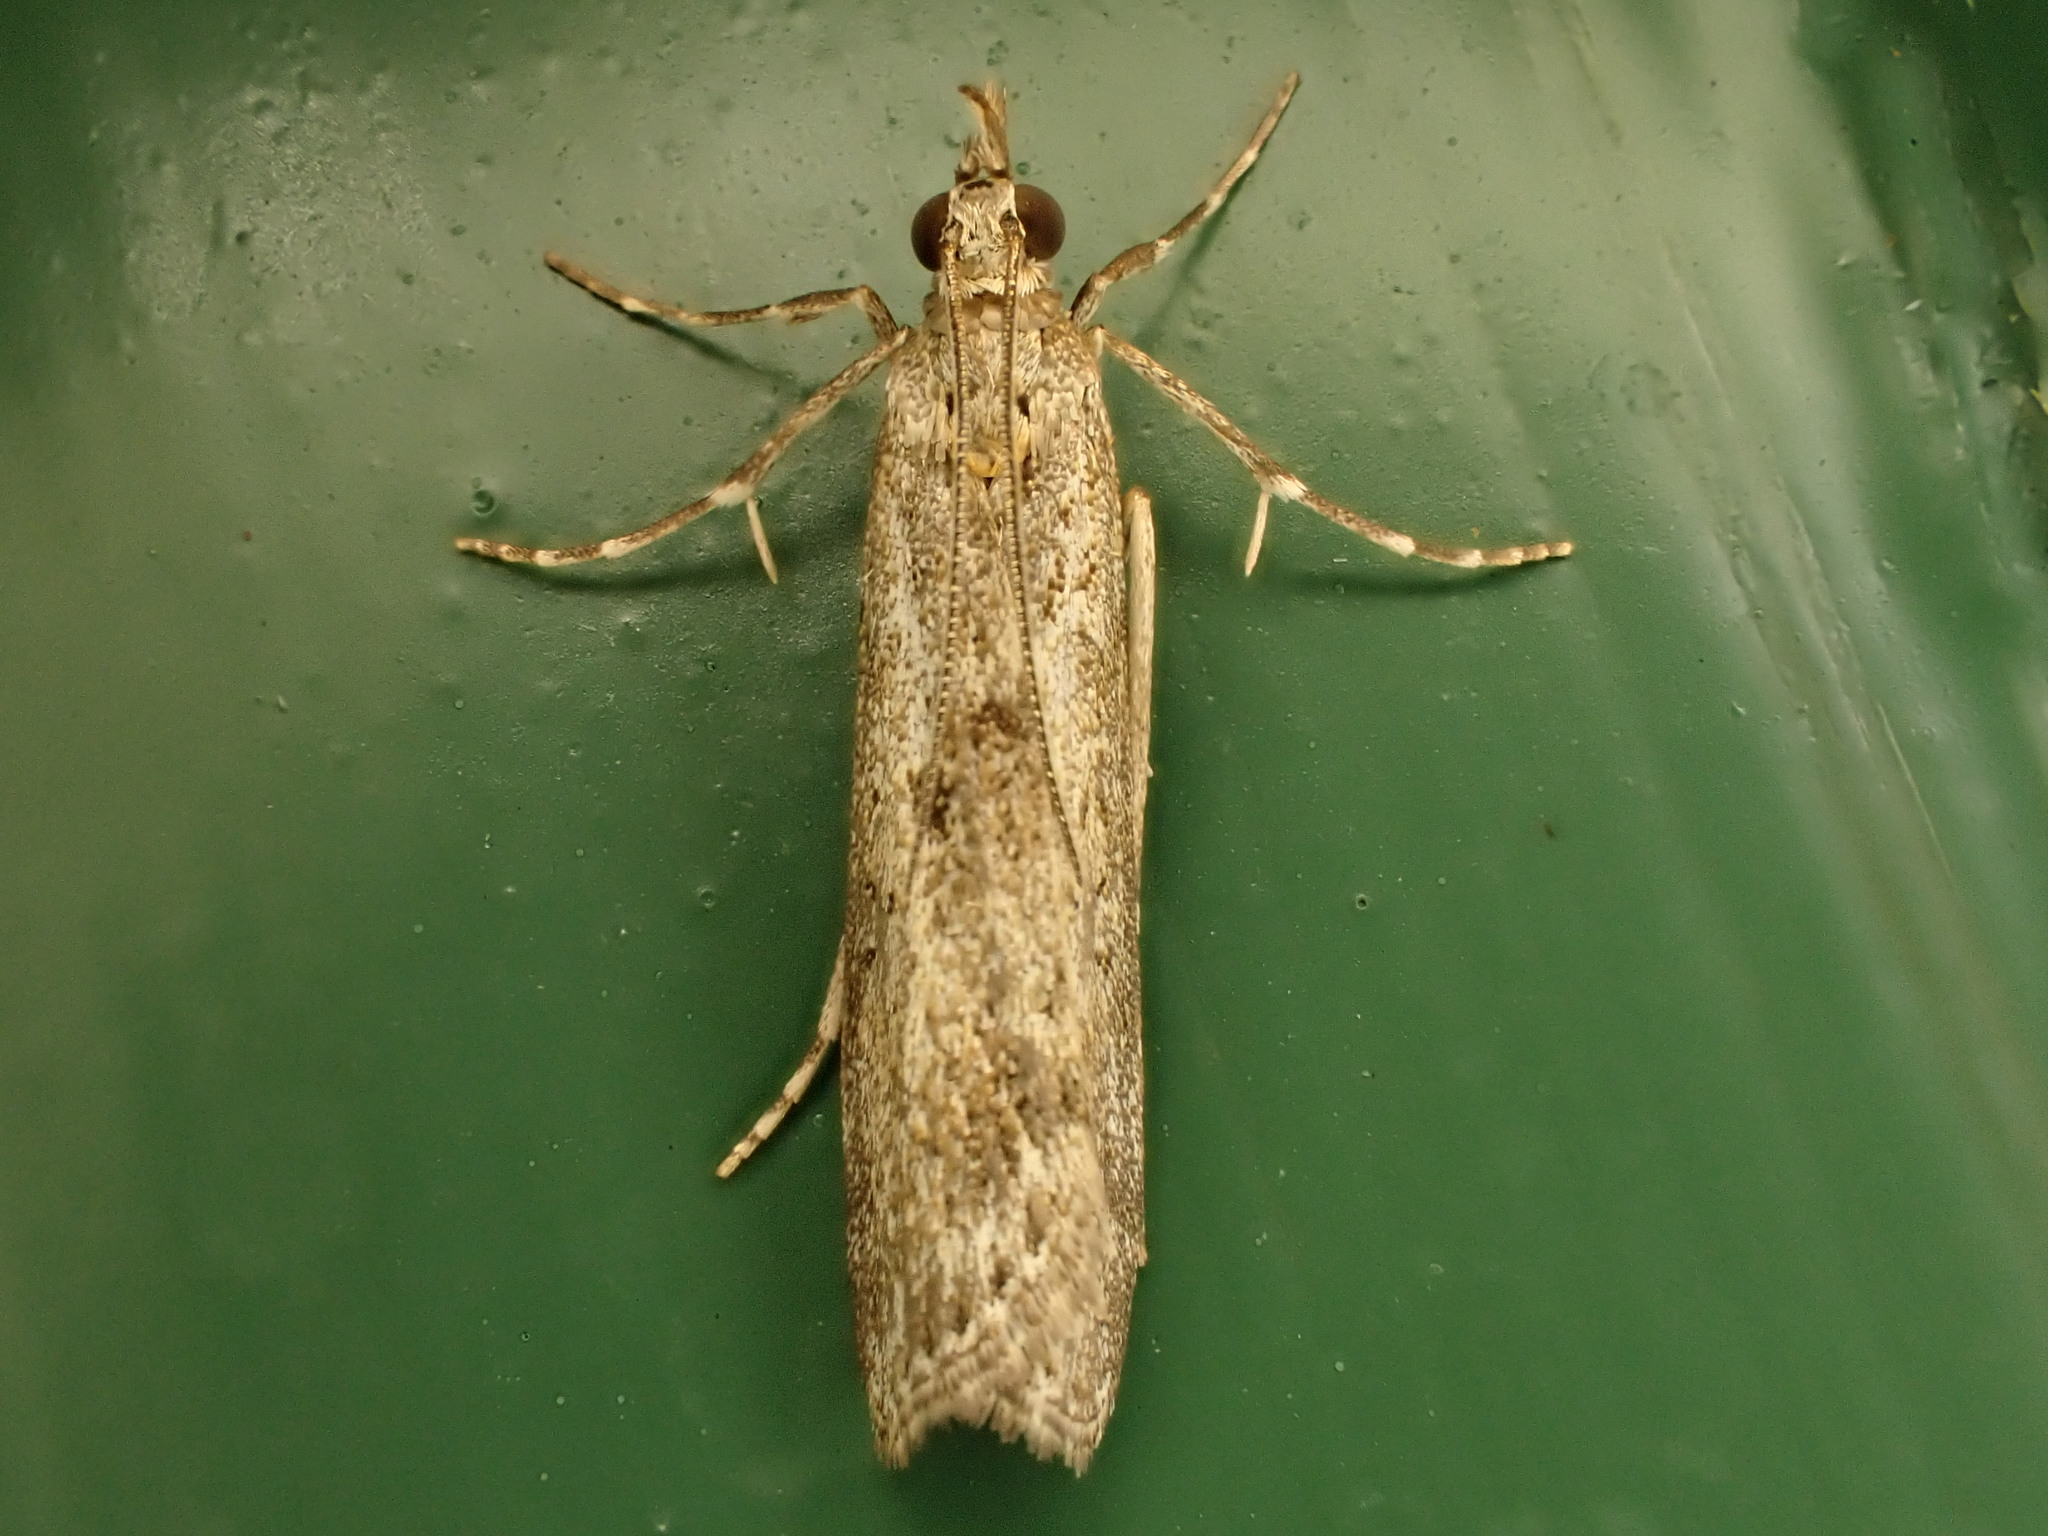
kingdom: Animalia
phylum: Arthropoda
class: Insecta
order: Lepidoptera
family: Crambidae
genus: Eudonia
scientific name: Eudonia leptalea
